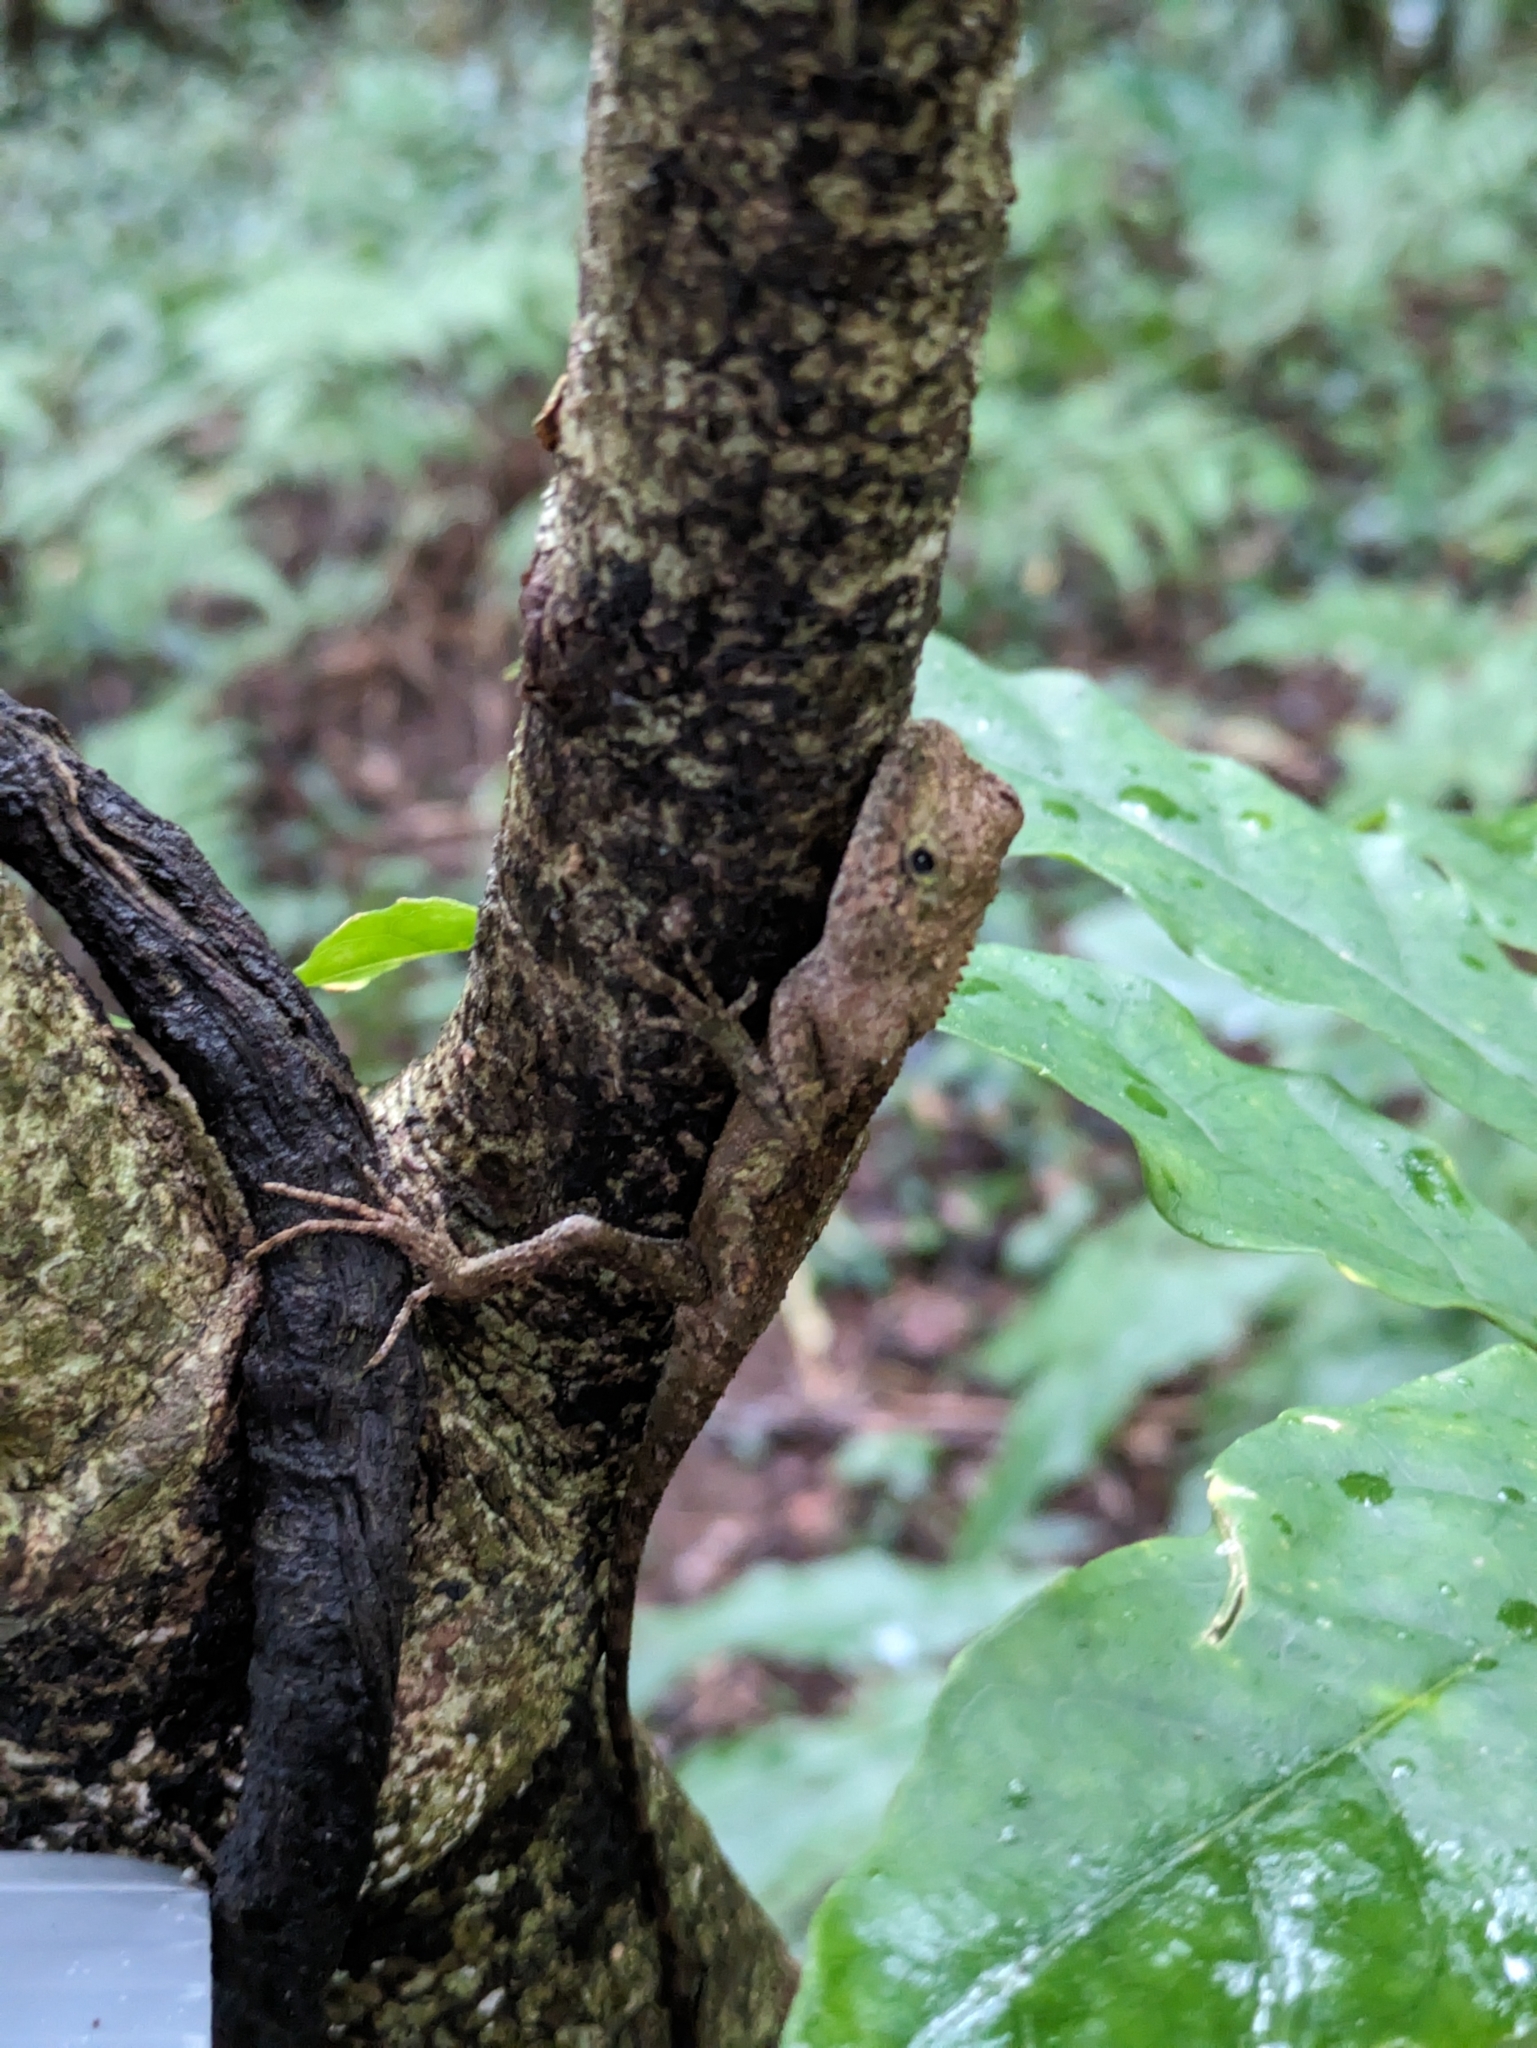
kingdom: Fungi
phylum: Basidiomycota
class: Agaricomycetes
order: Boletales
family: Diplocystidiaceae
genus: Diploderma
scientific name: Diploderma polygonatum
